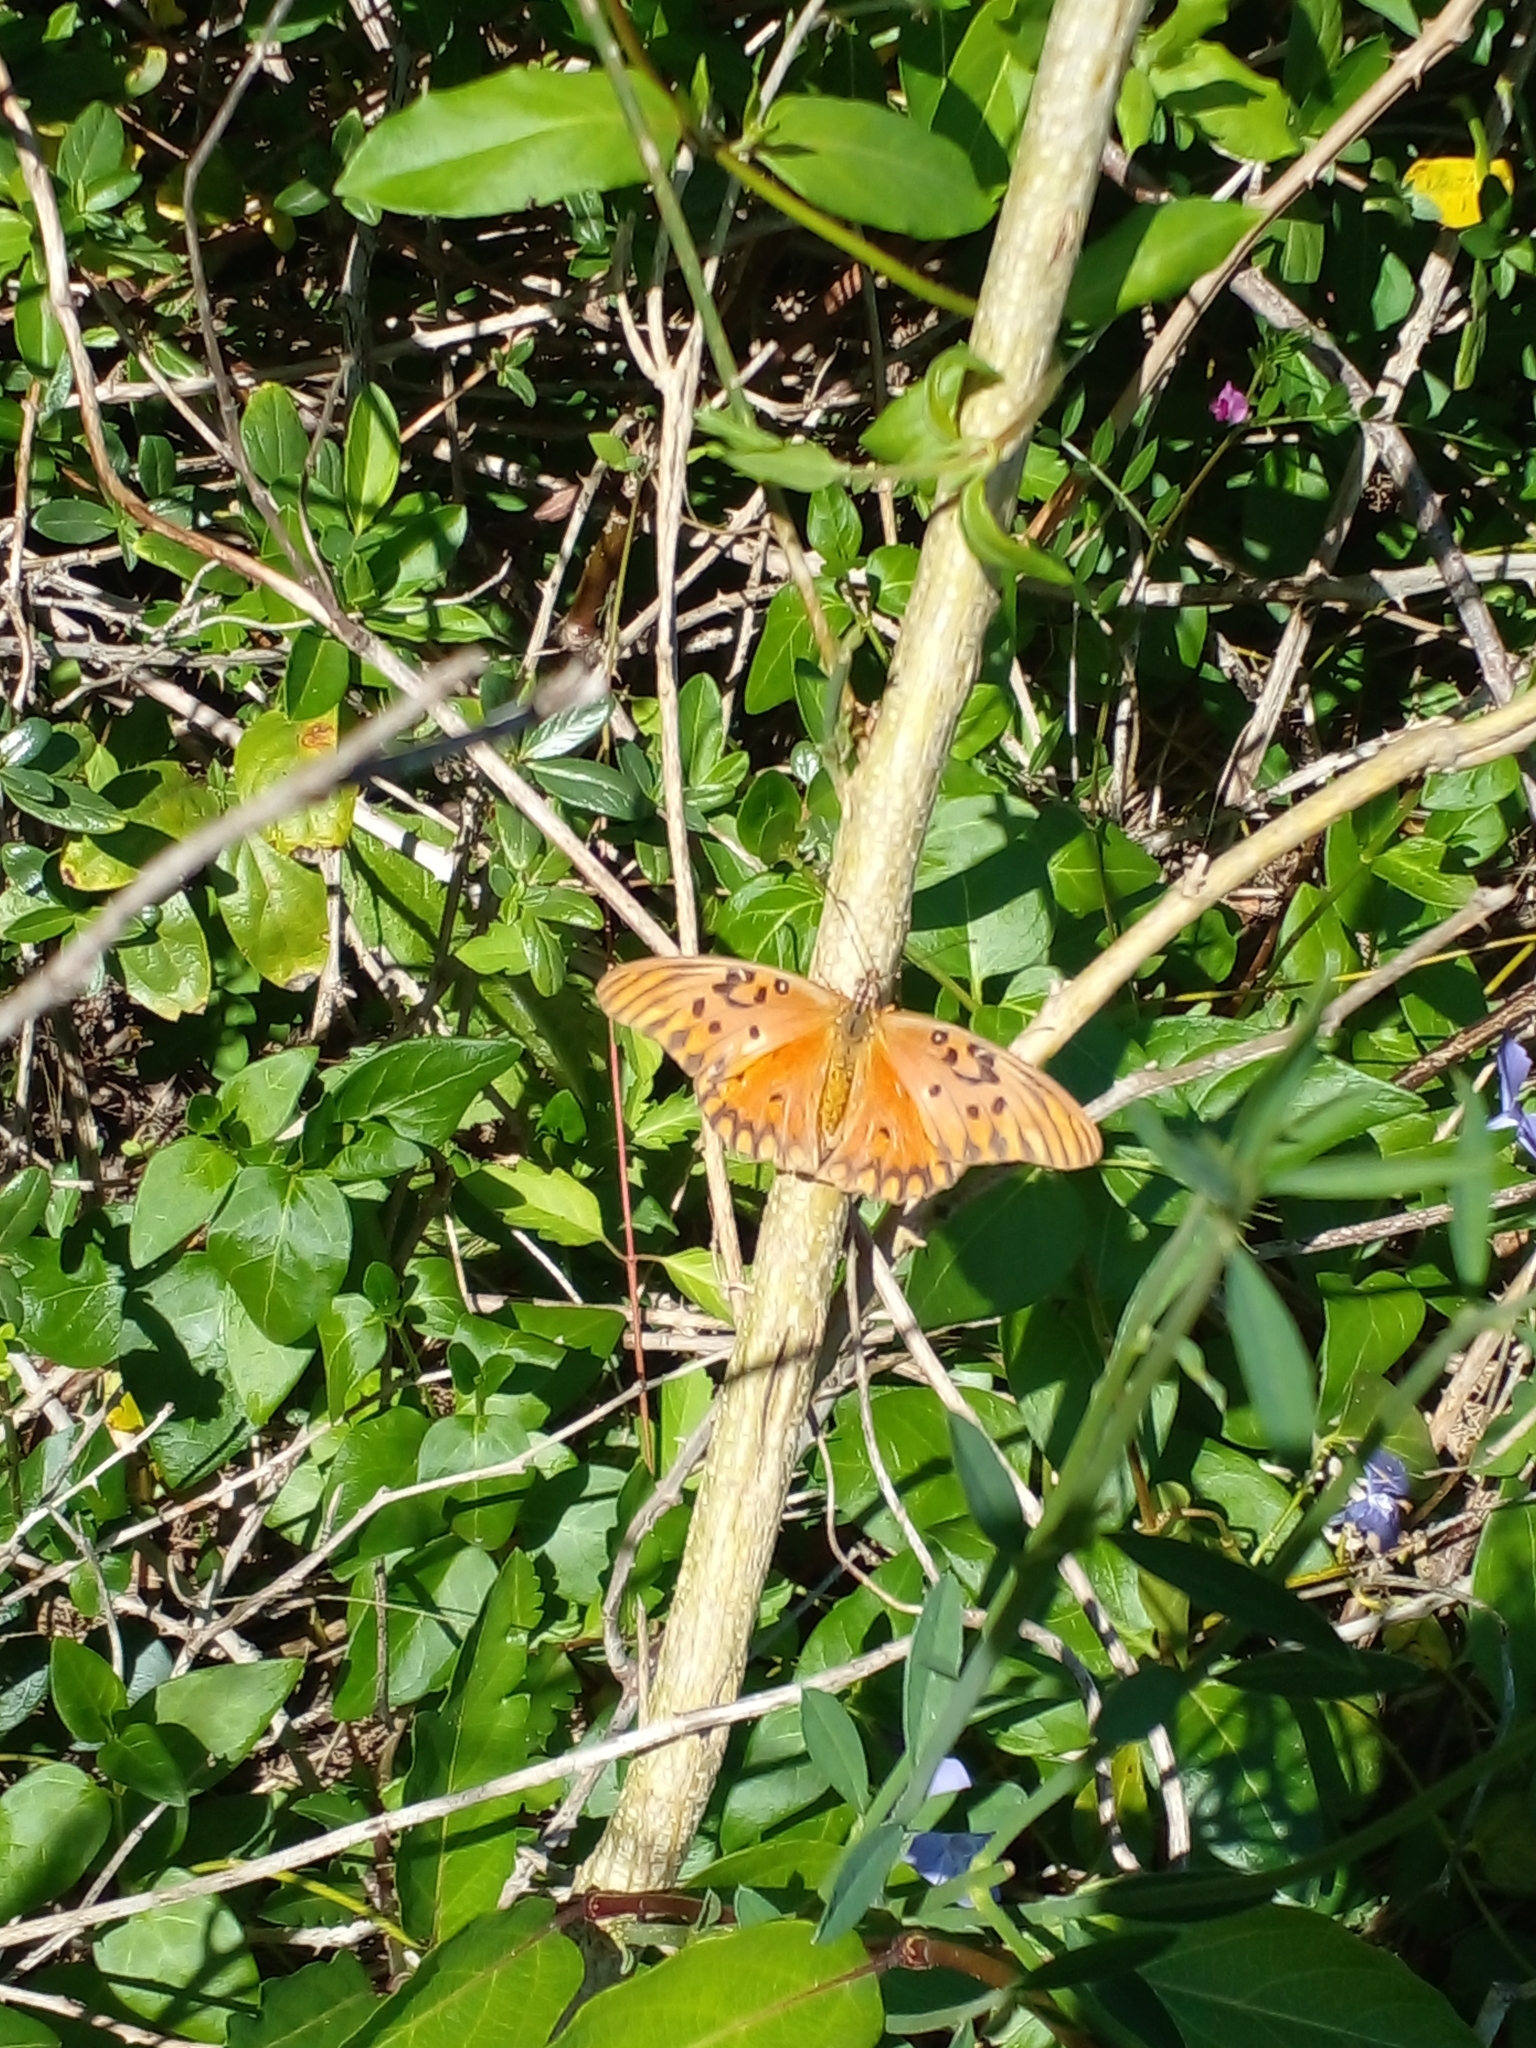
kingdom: Animalia
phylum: Arthropoda
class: Insecta
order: Lepidoptera
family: Nymphalidae
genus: Dione
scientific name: Dione vanillae
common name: Gulf fritillary
